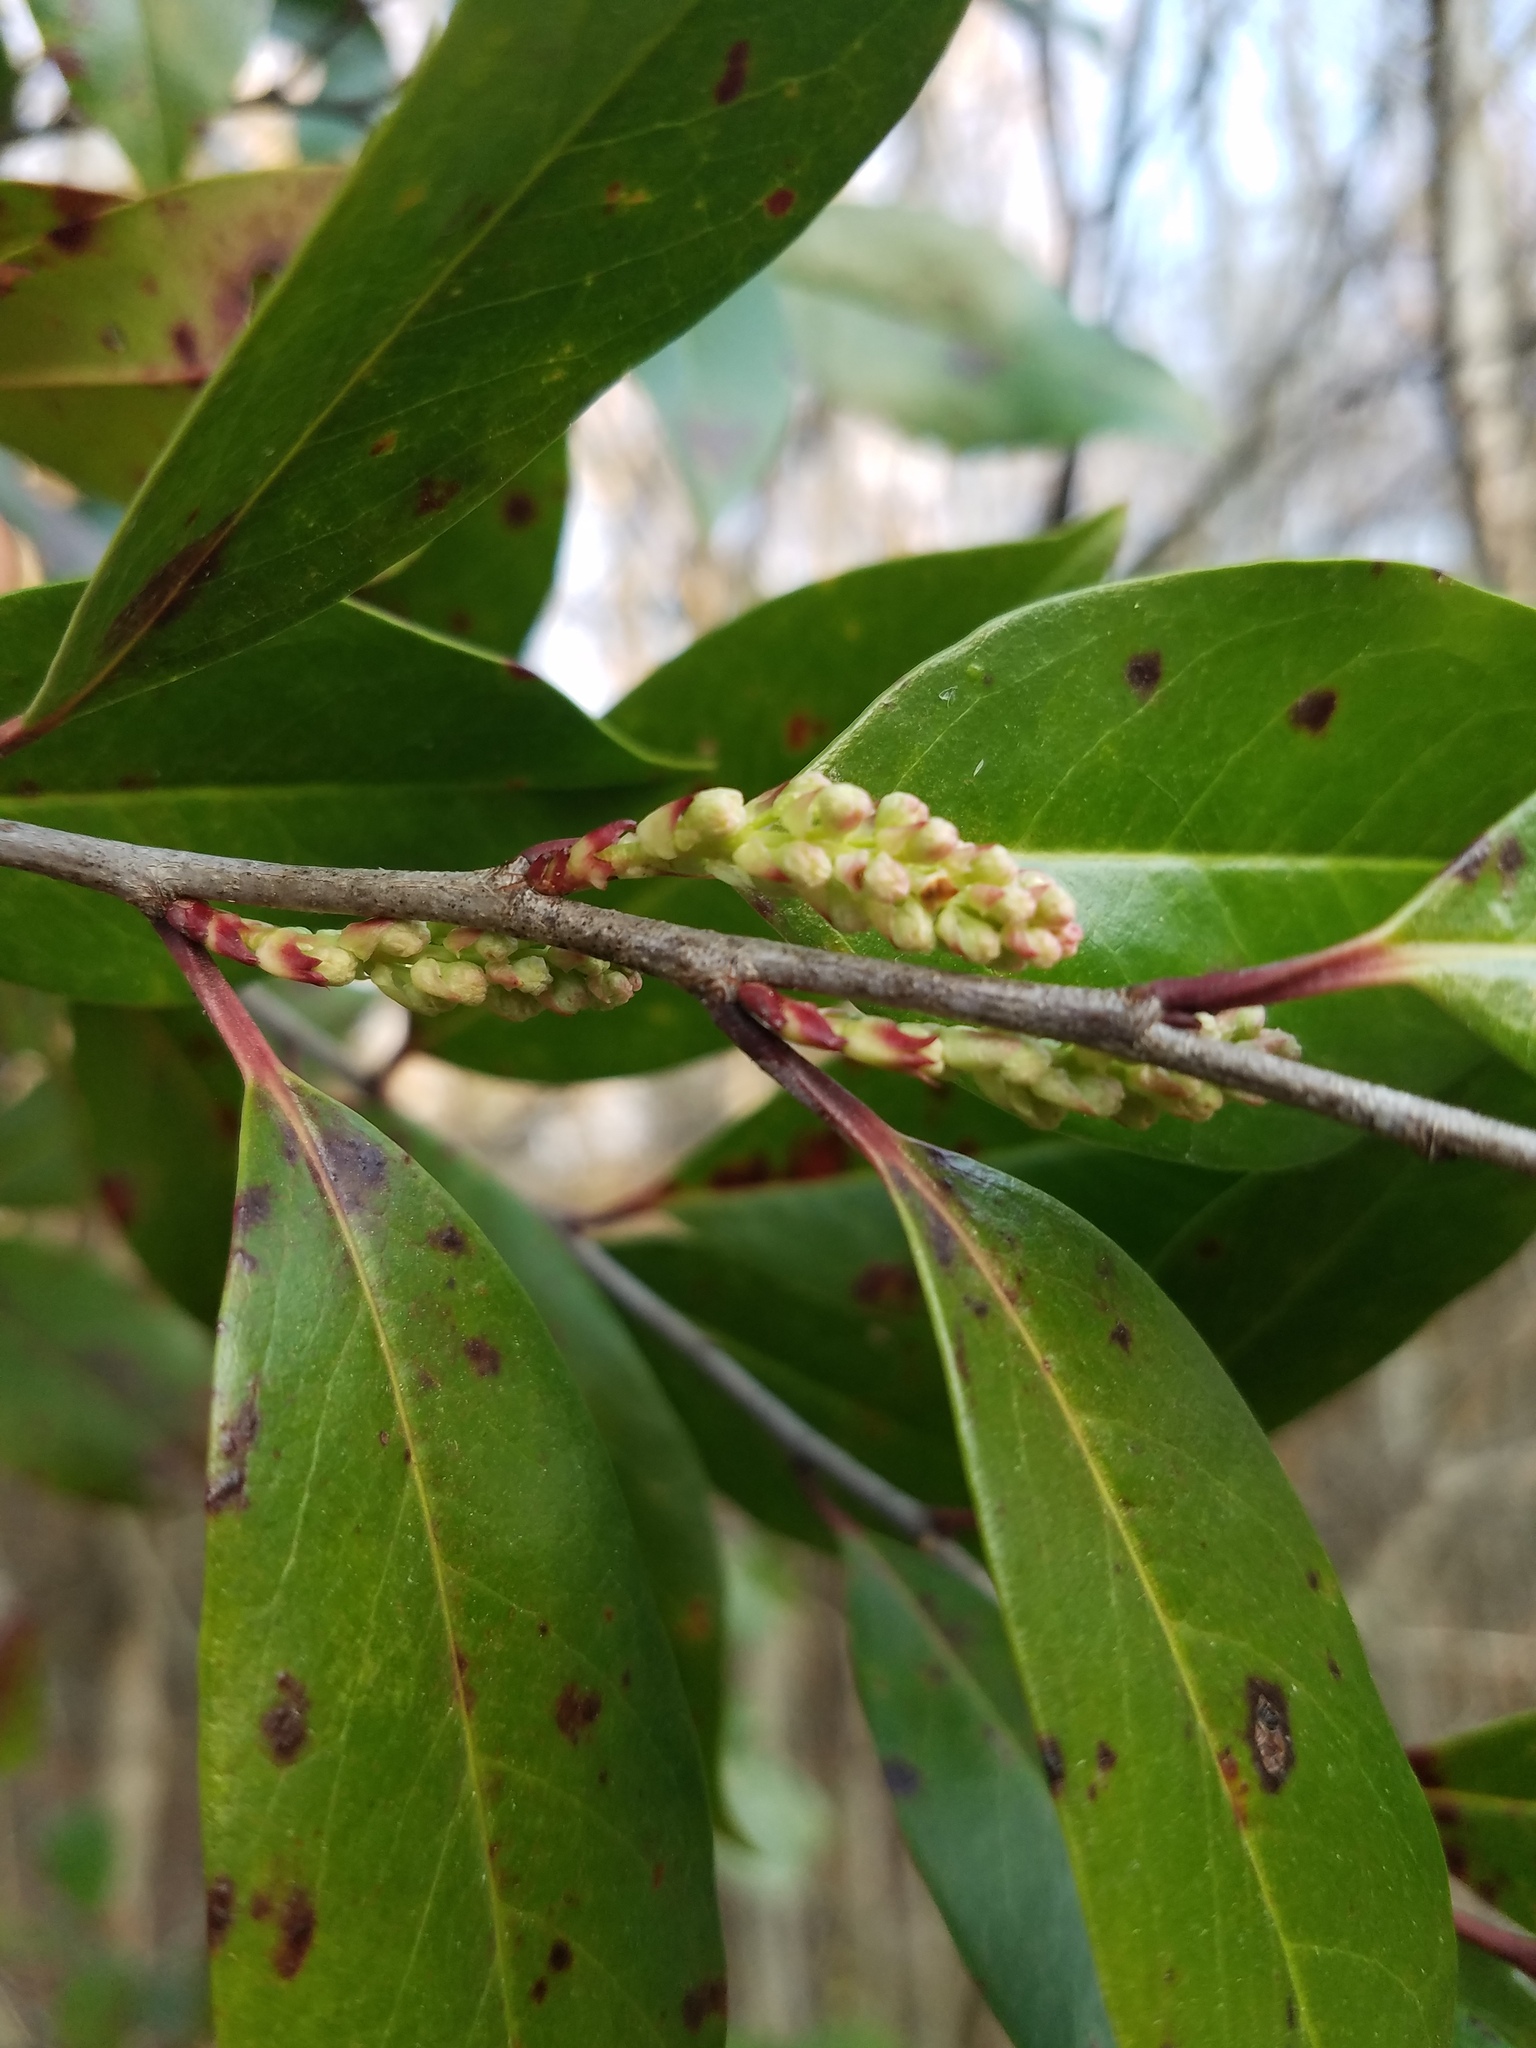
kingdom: Plantae
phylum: Tracheophyta
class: Magnoliopsida
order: Rosales
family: Rosaceae
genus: Prunus
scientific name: Prunus caroliniana
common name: Carolina laurel cherry
